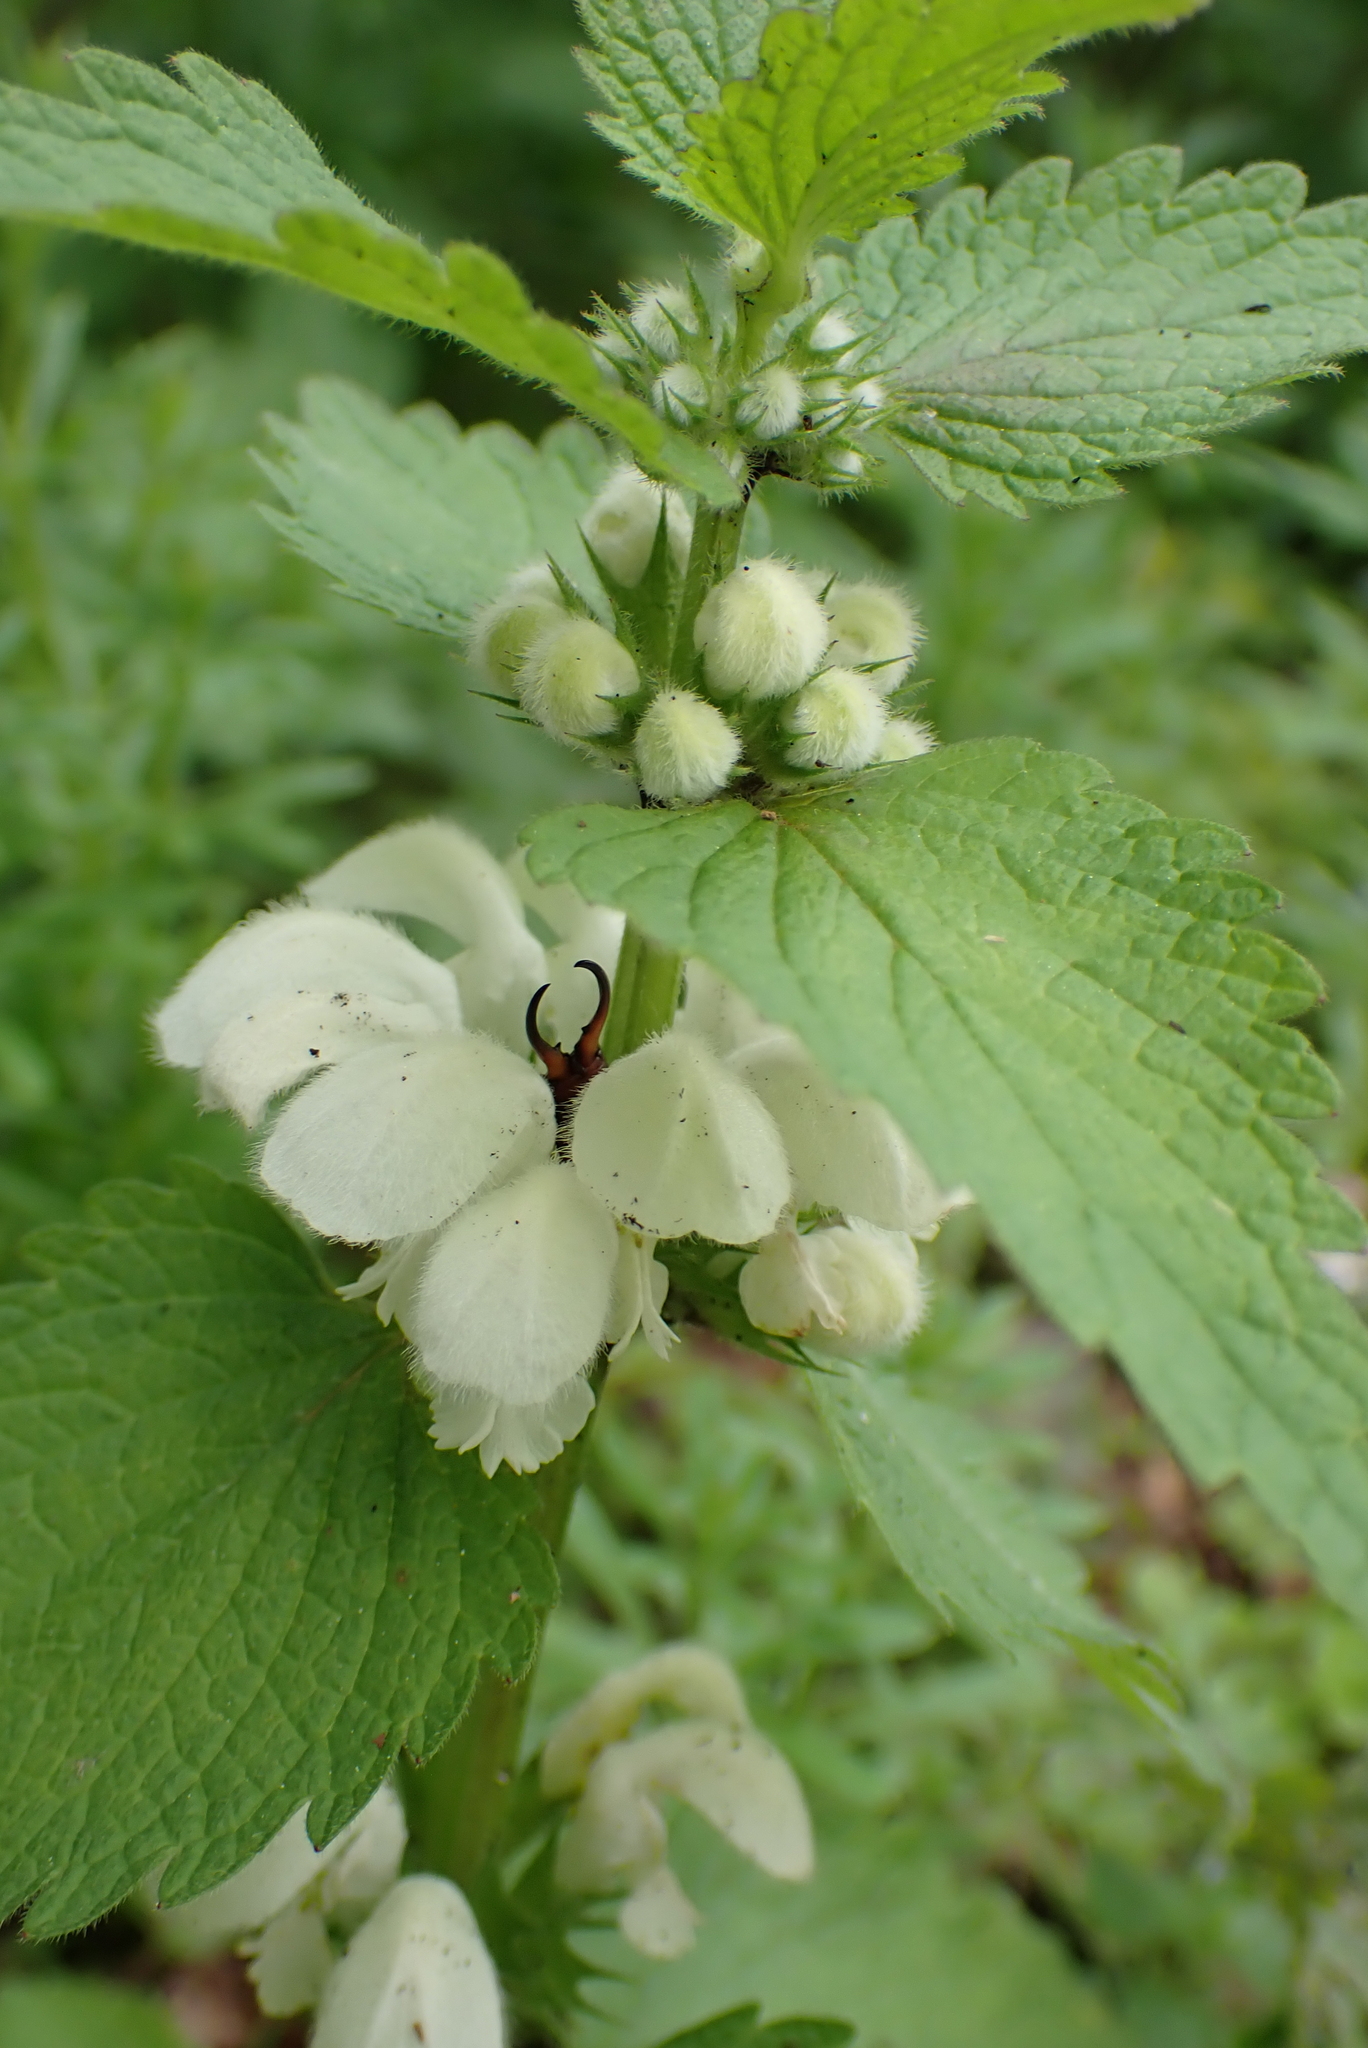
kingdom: Plantae
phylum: Tracheophyta
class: Magnoliopsida
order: Lamiales
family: Lamiaceae
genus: Lamium
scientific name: Lamium album
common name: White dead-nettle
